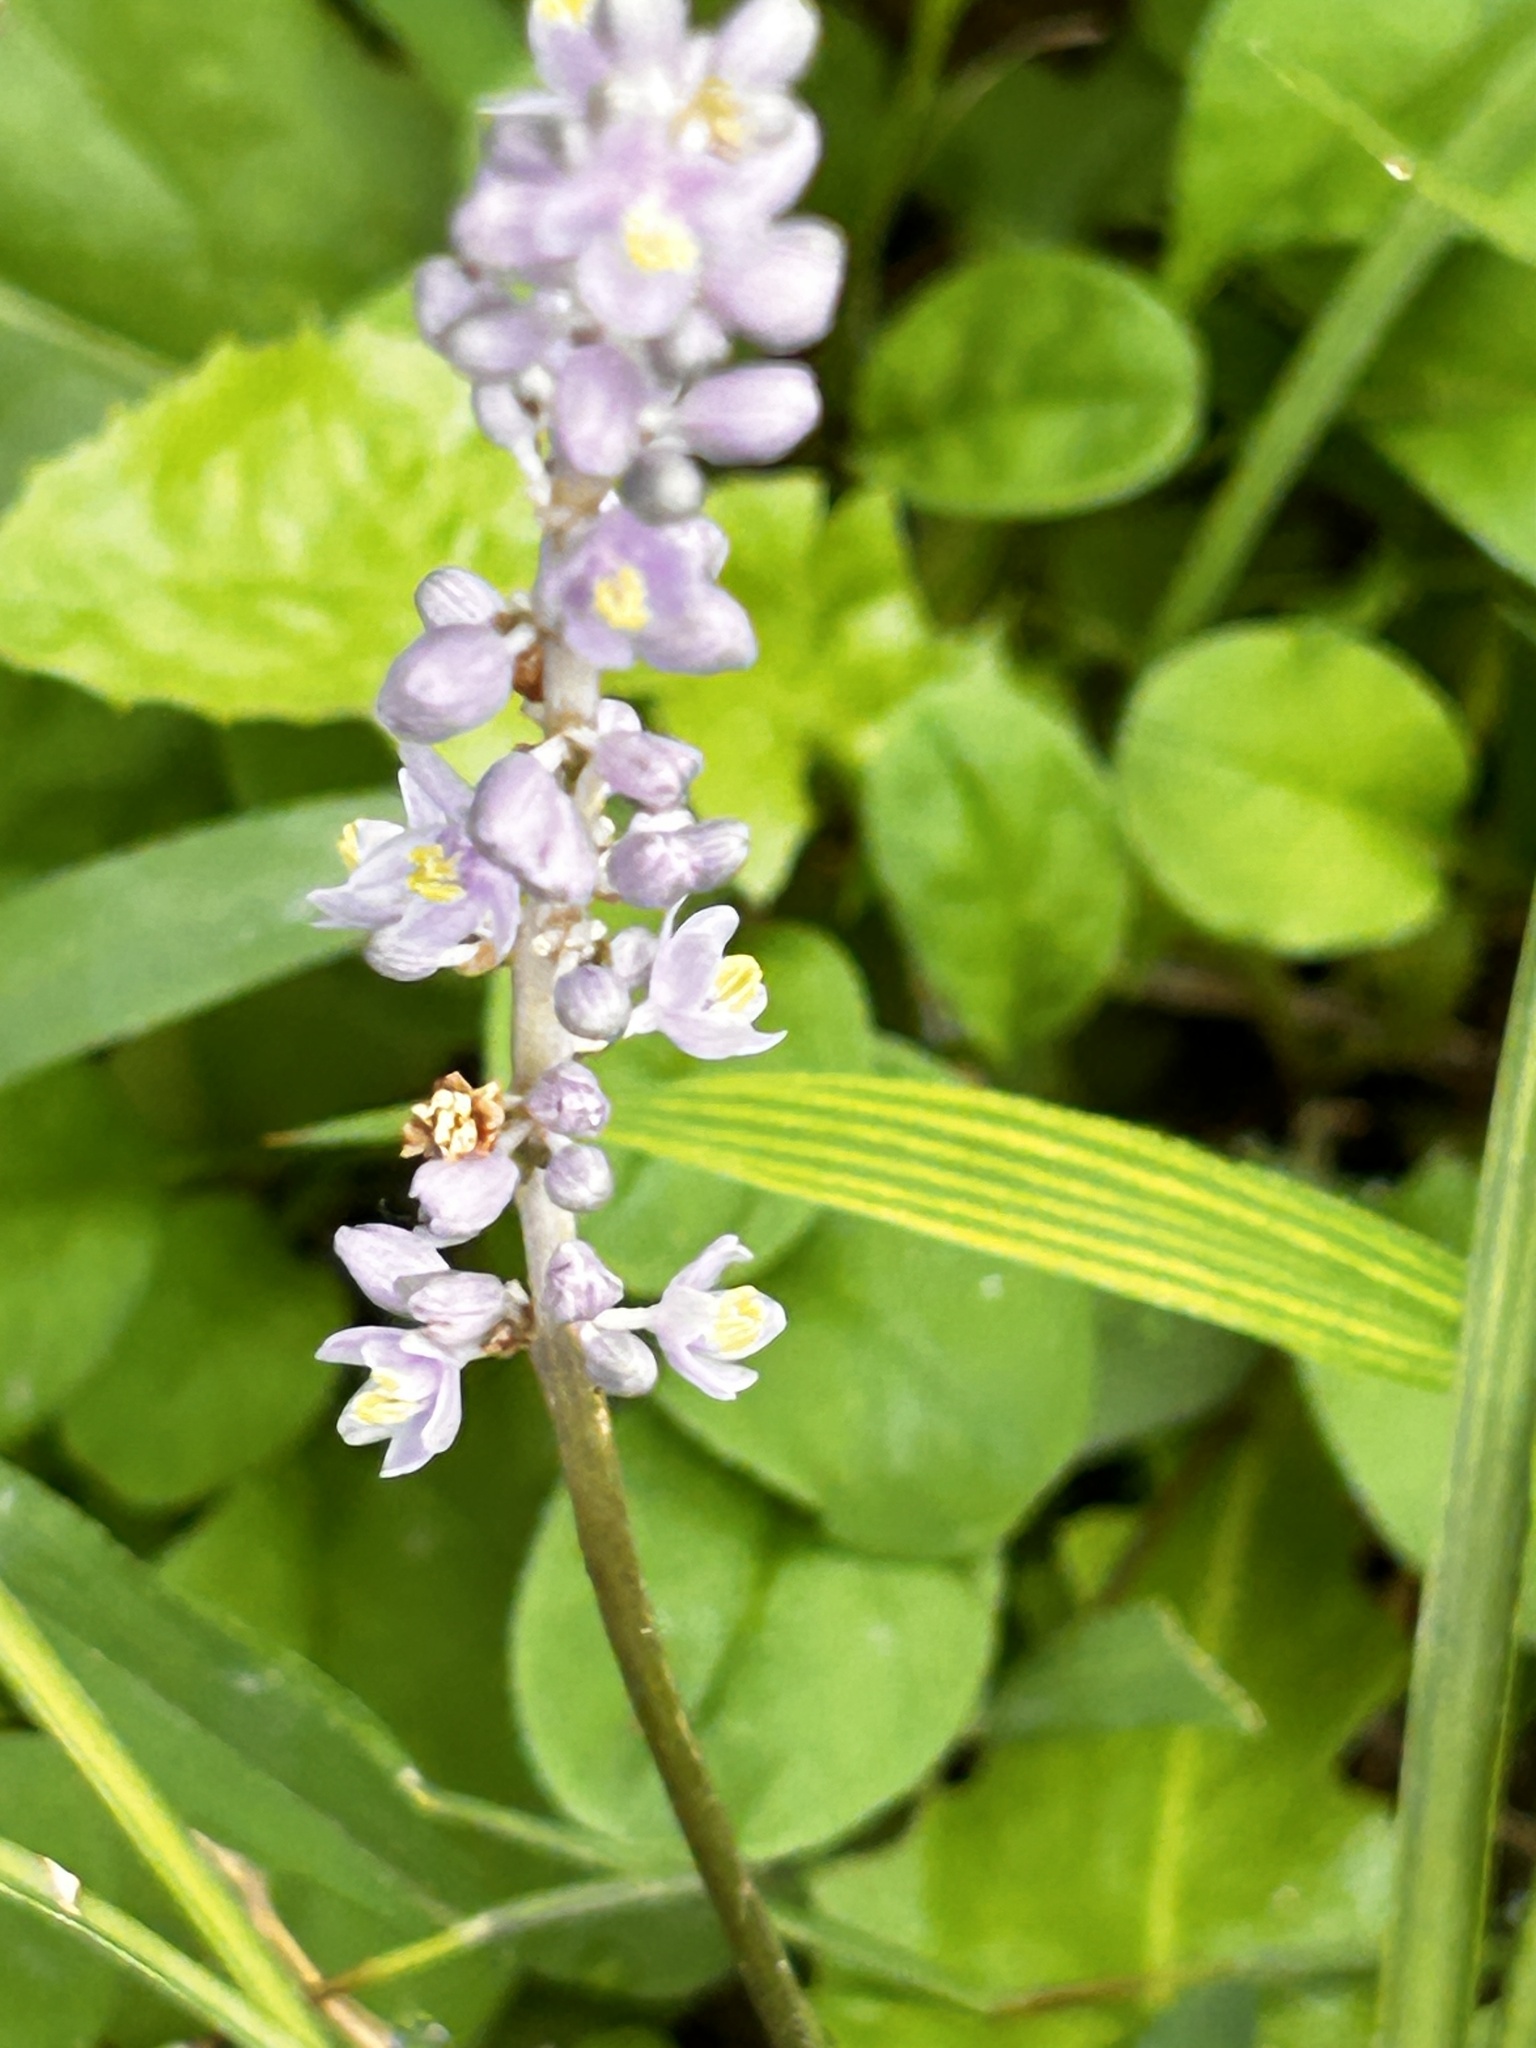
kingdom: Plantae
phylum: Tracheophyta
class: Liliopsida
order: Asparagales
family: Asparagaceae
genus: Liriope
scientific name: Liriope spicata
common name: Creeping liriope
